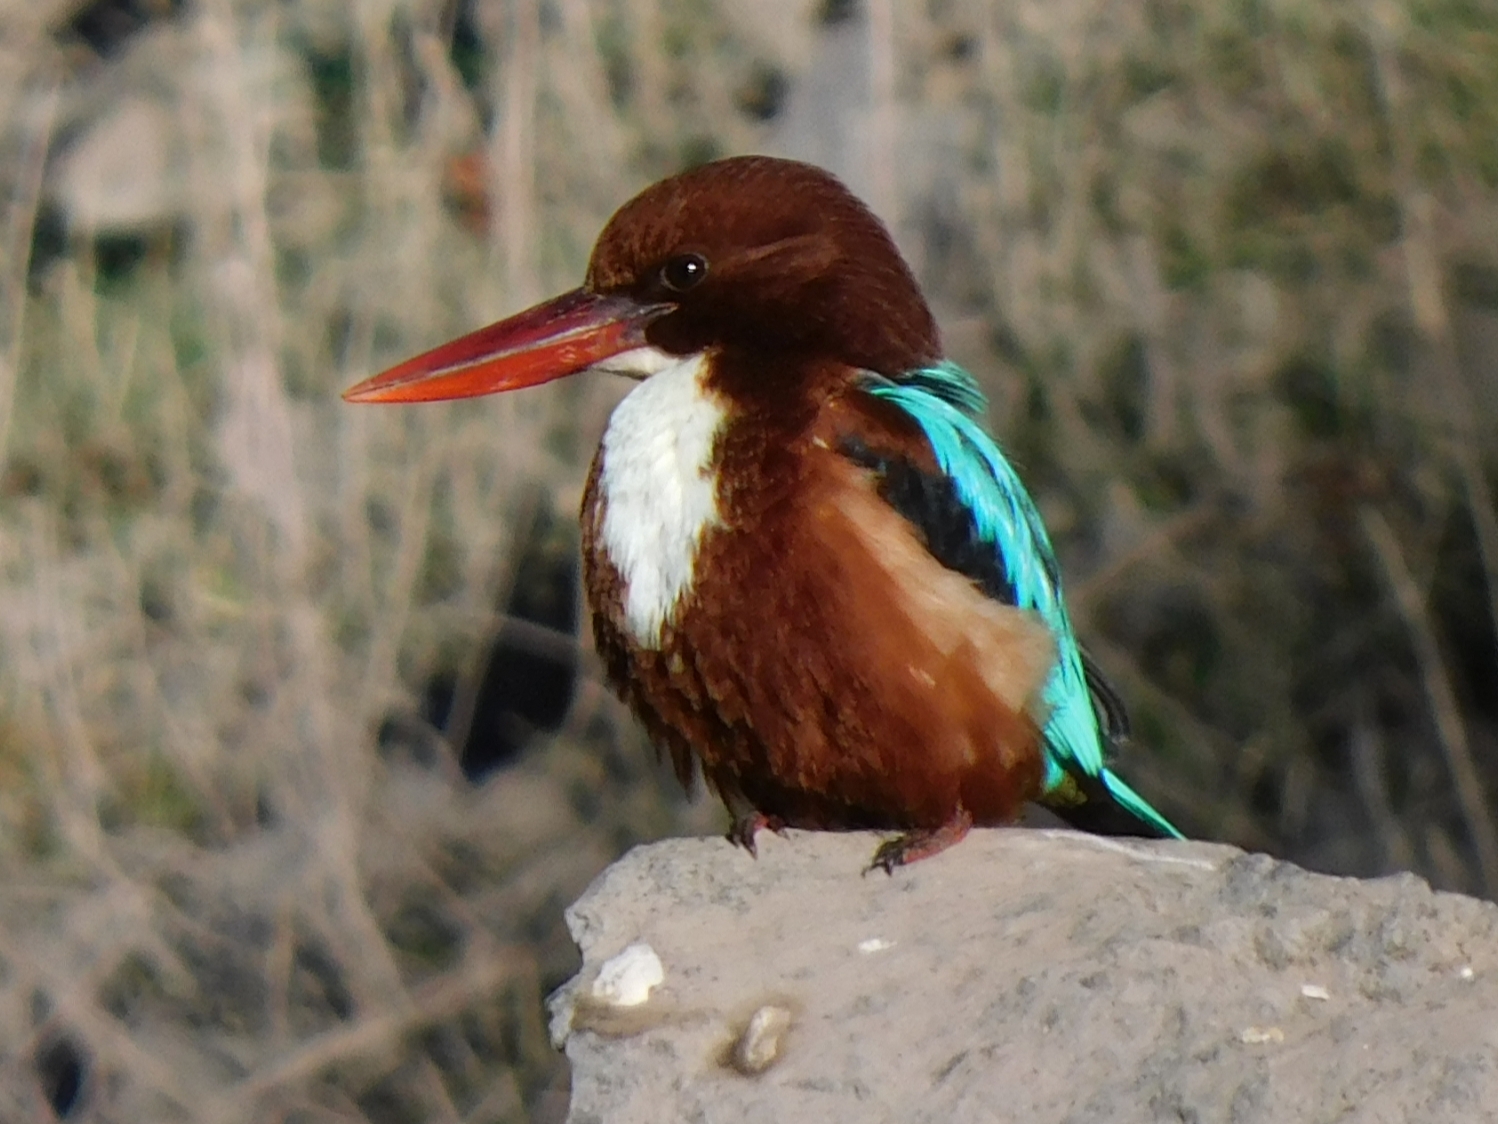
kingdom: Animalia
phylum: Chordata
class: Aves
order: Coraciiformes
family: Alcedinidae
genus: Halcyon
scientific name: Halcyon smyrnensis
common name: White-throated kingfisher
